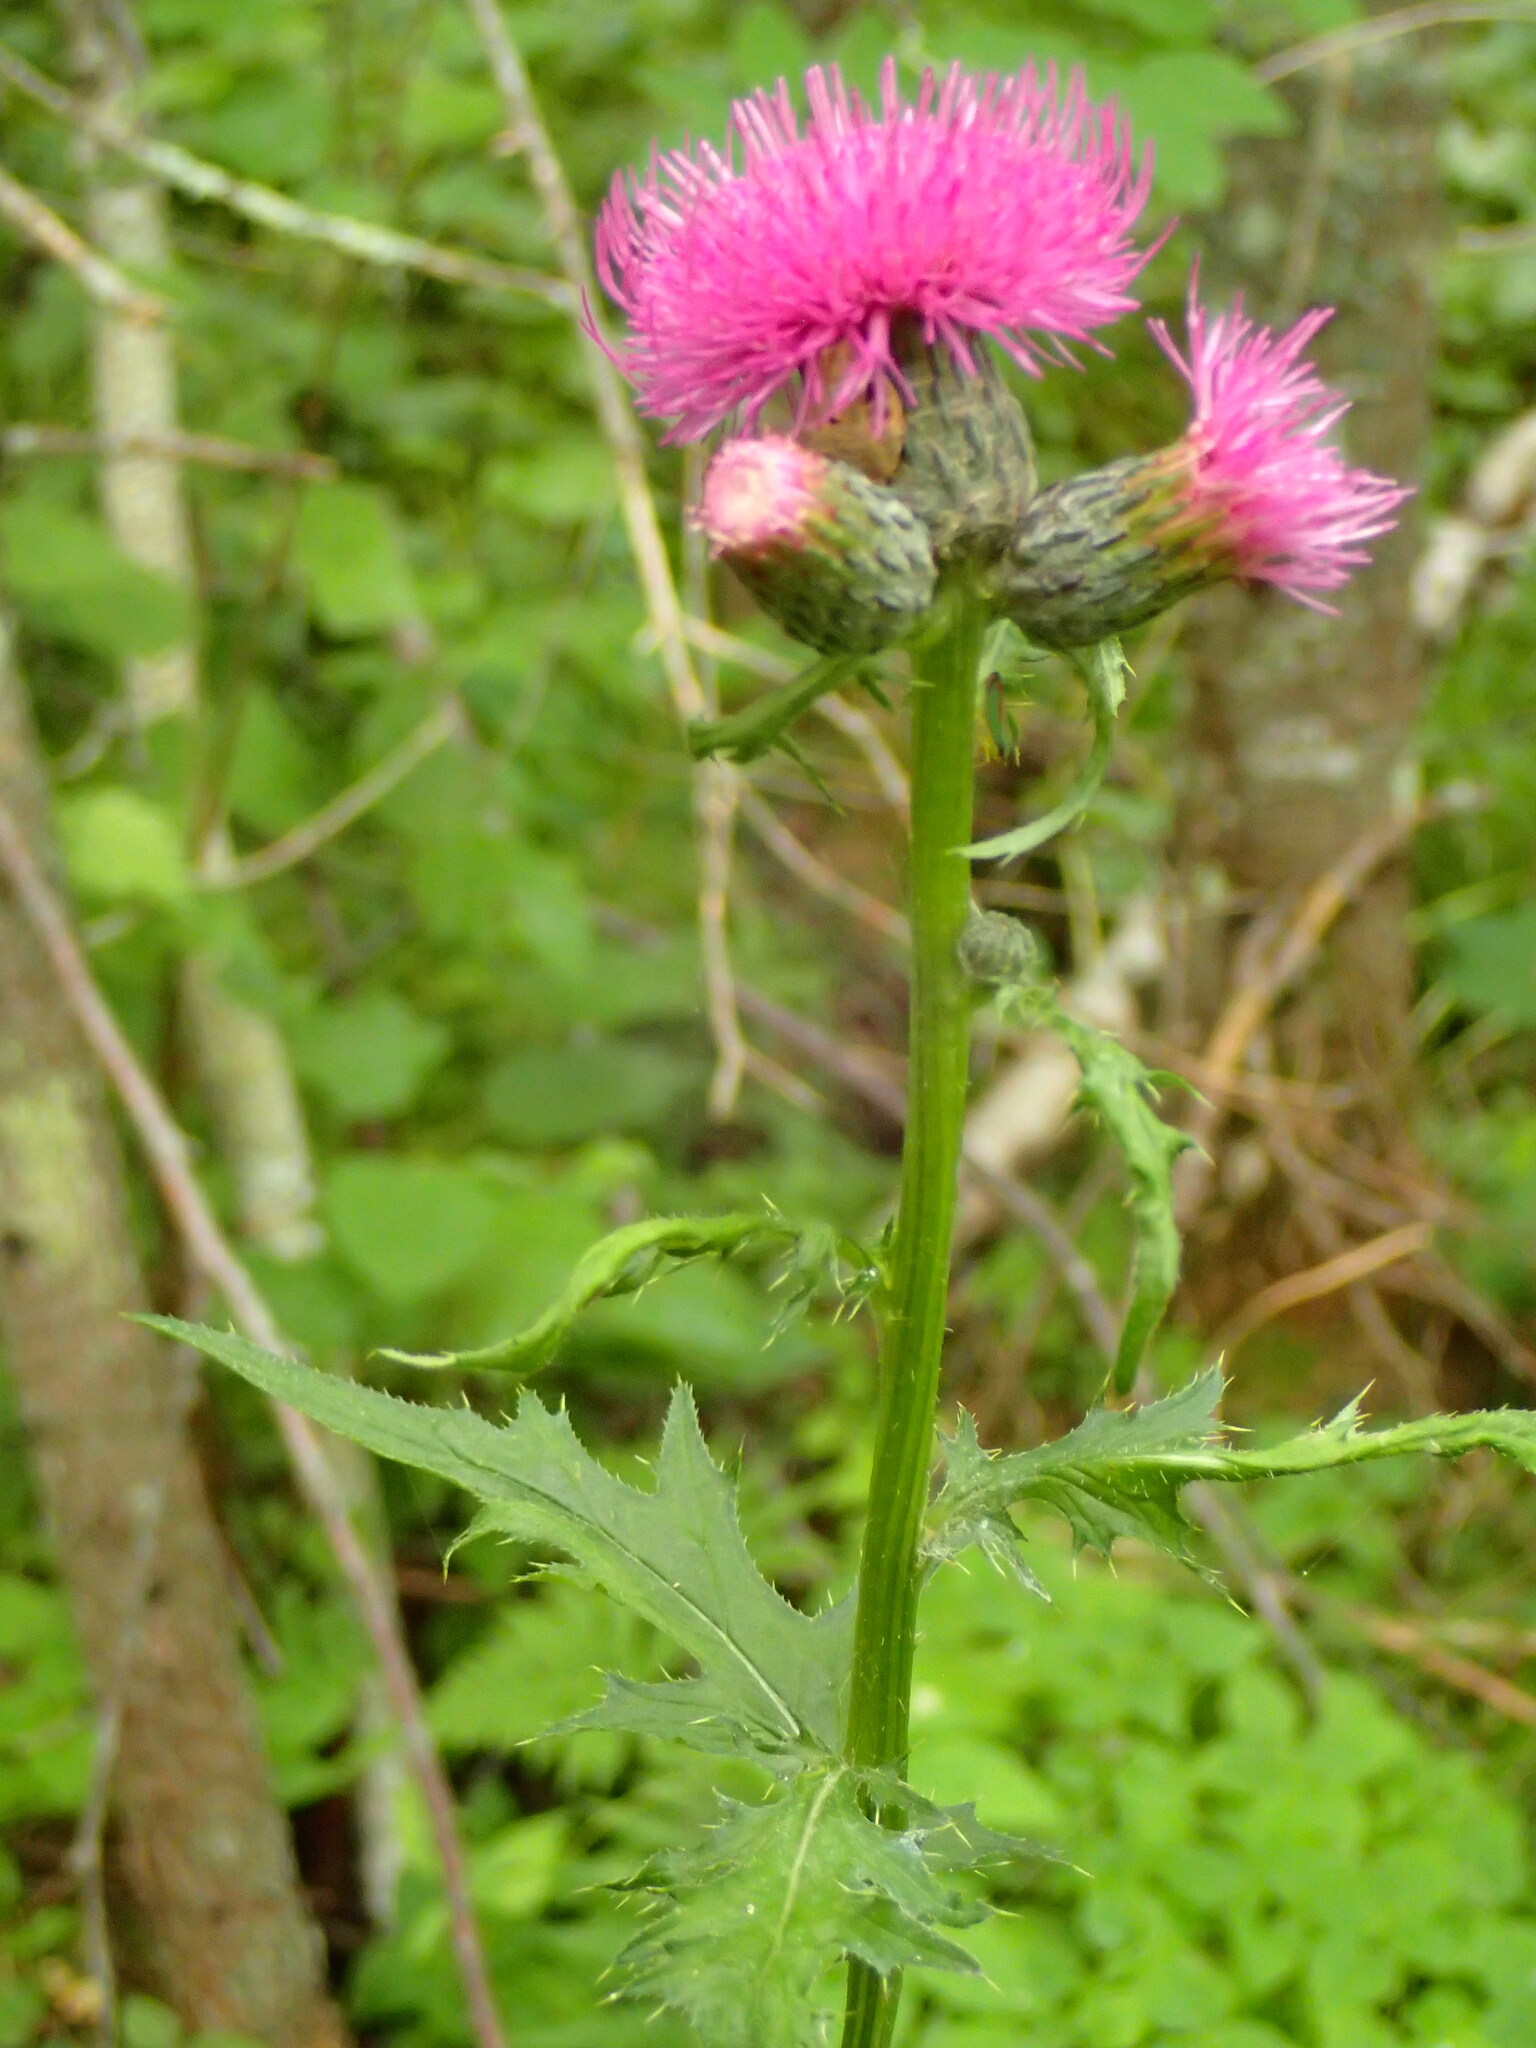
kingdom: Plantae
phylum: Tracheophyta
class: Magnoliopsida
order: Asterales
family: Asteraceae
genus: Cirsium
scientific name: Cirsium muticum
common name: Dunce-nettle
